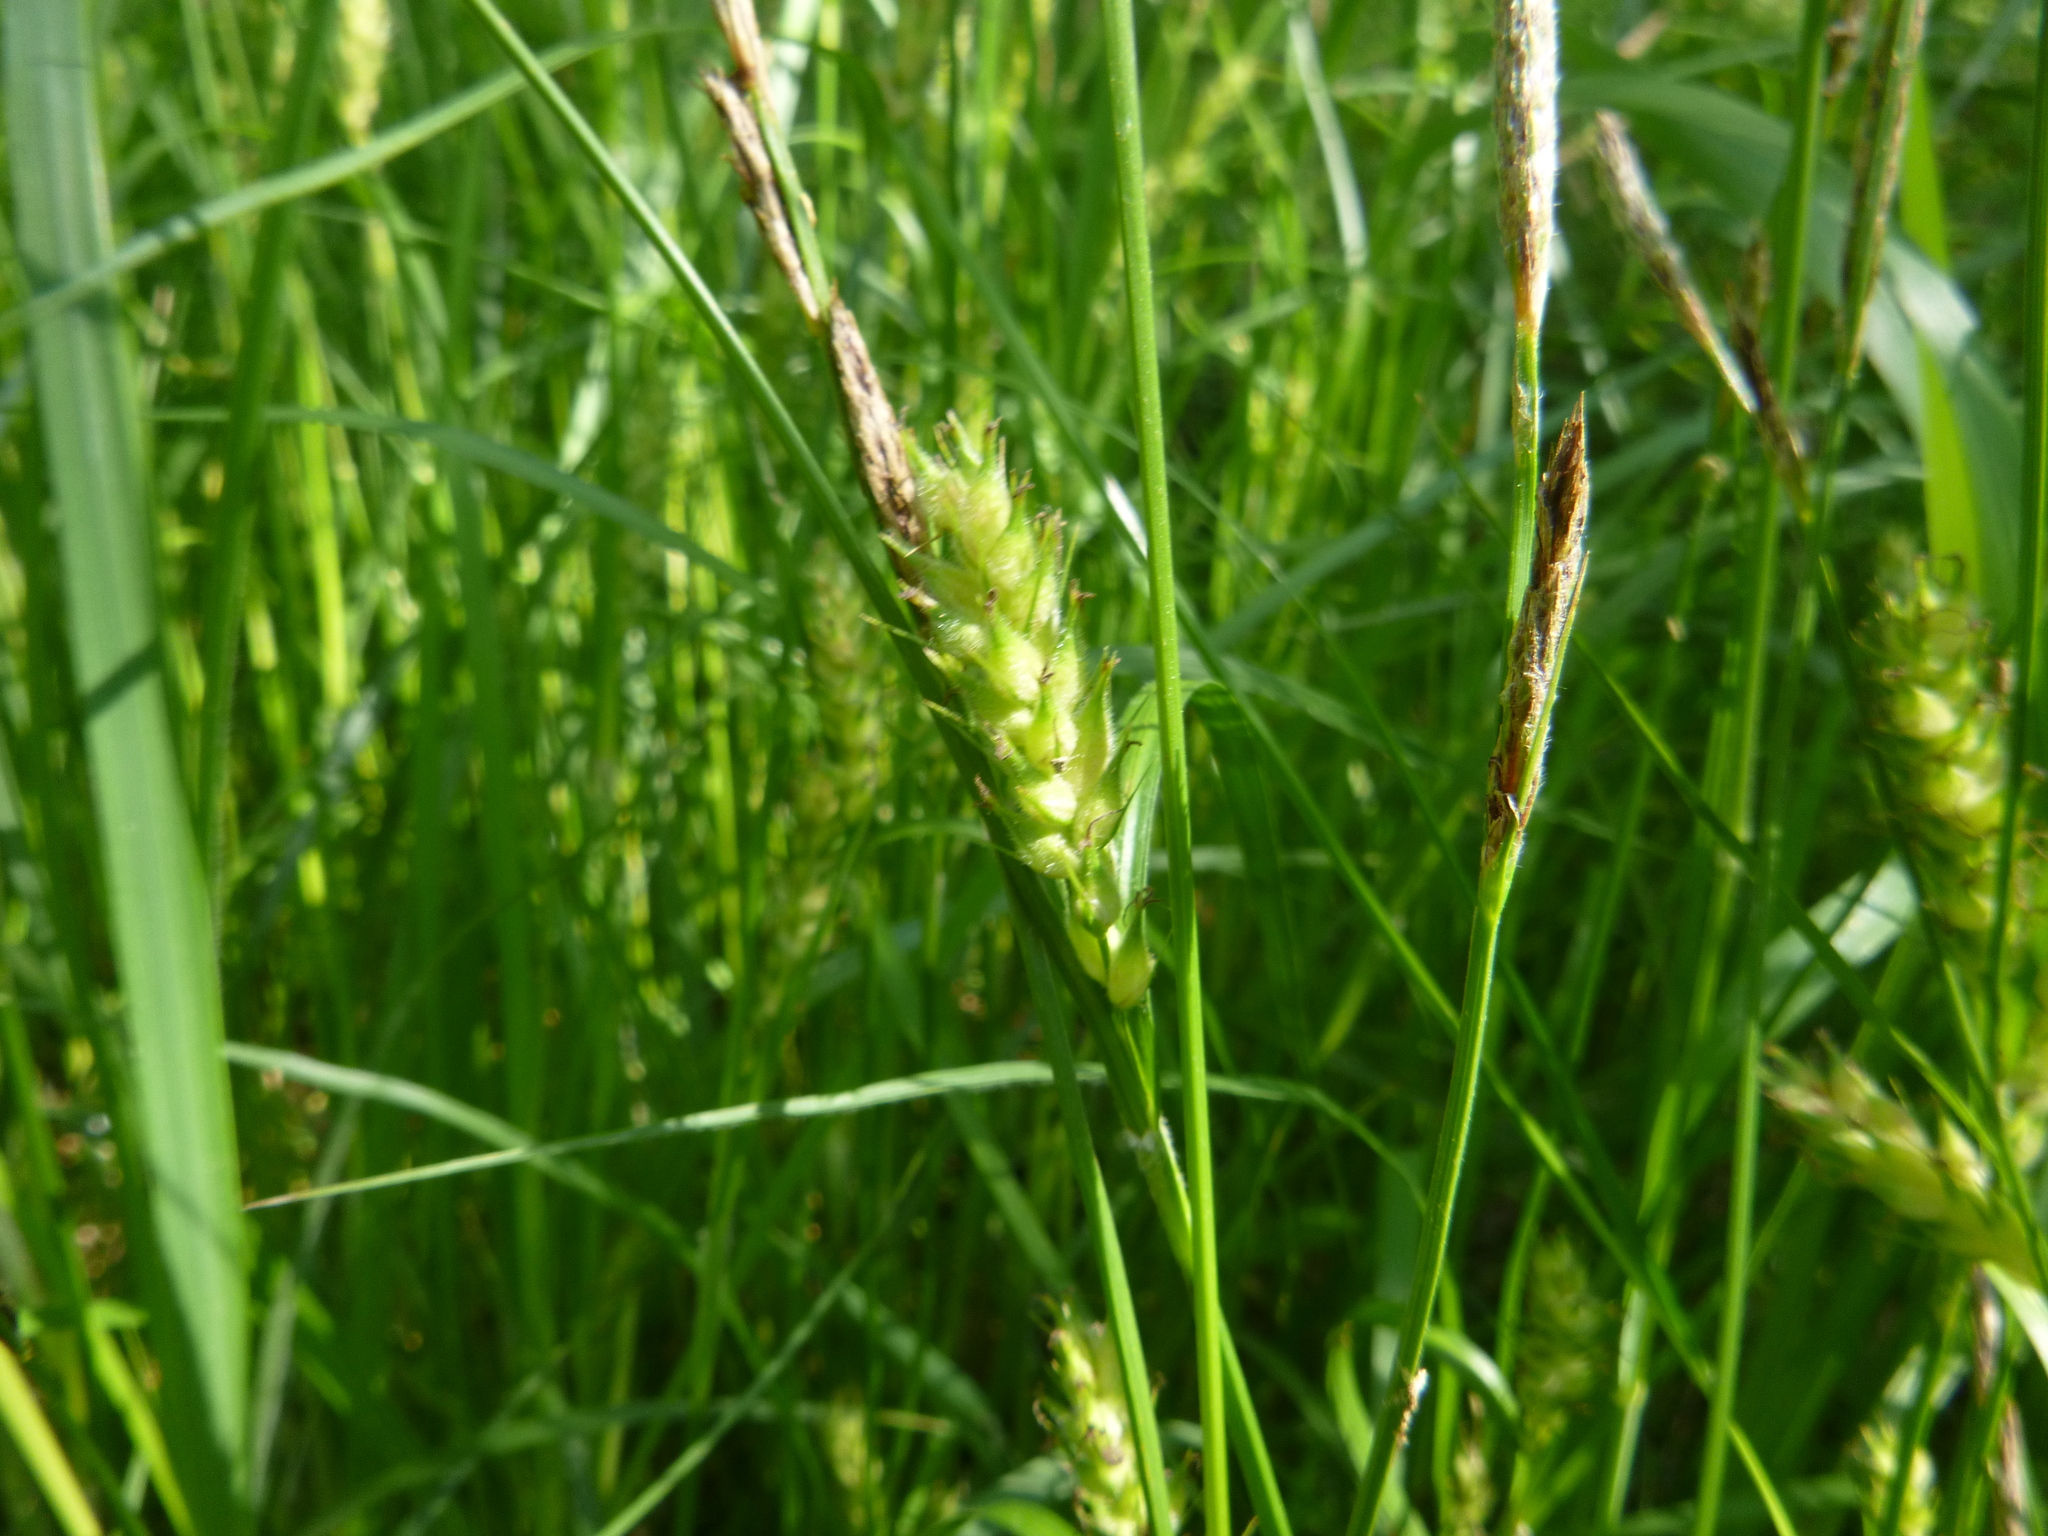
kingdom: Plantae
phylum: Tracheophyta
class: Liliopsida
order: Poales
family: Cyperaceae
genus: Carex
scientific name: Carex hirta
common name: Hairy sedge
